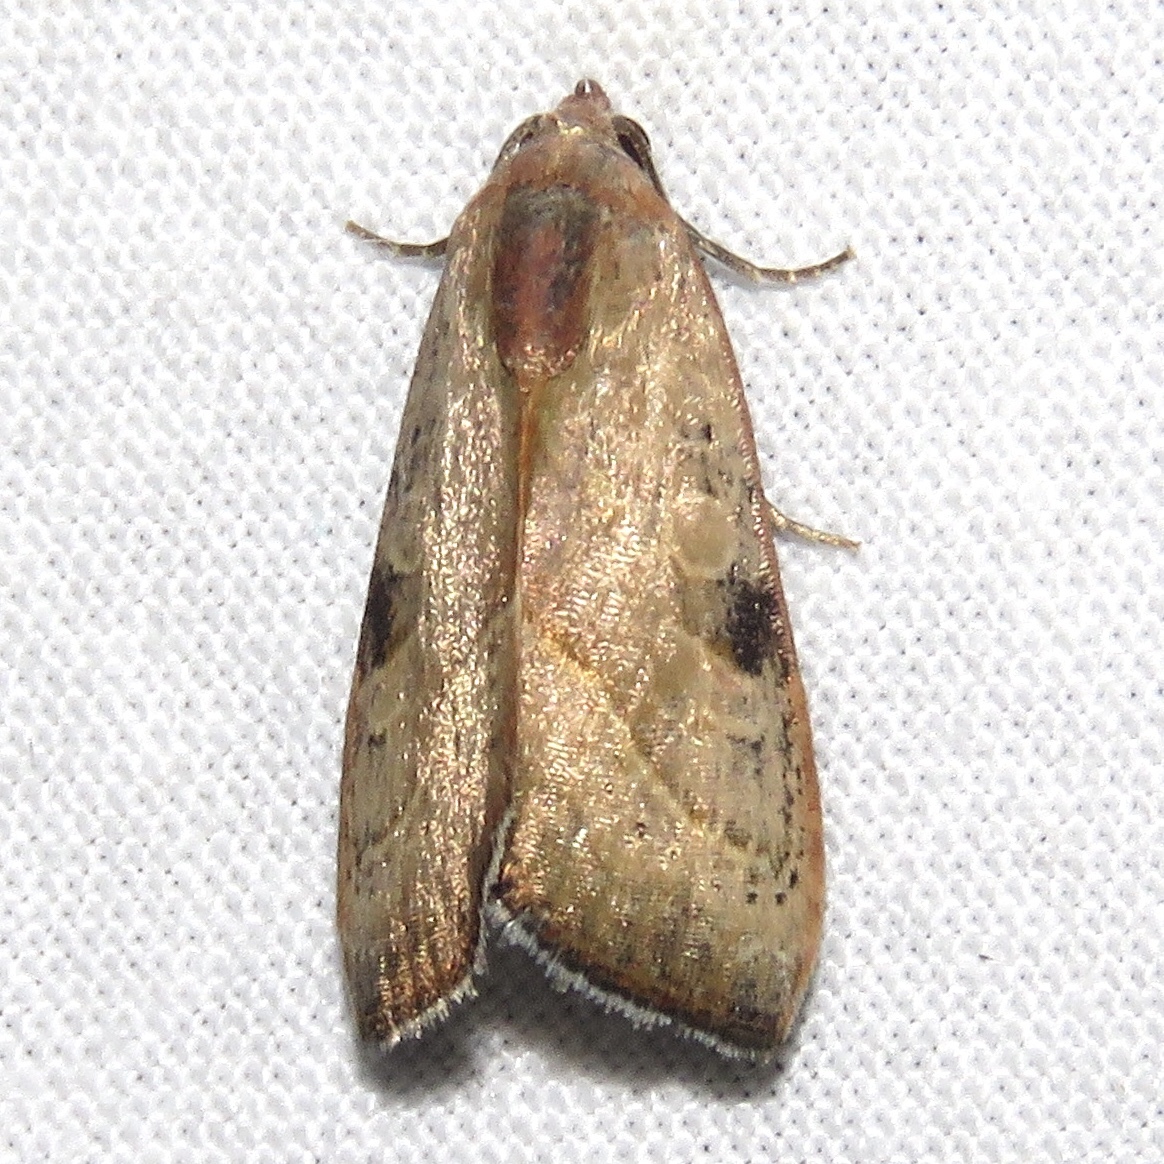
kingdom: Animalia
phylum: Arthropoda
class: Insecta
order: Lepidoptera
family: Noctuidae
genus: Galgula
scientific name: Galgula partita
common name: Wedgeling
